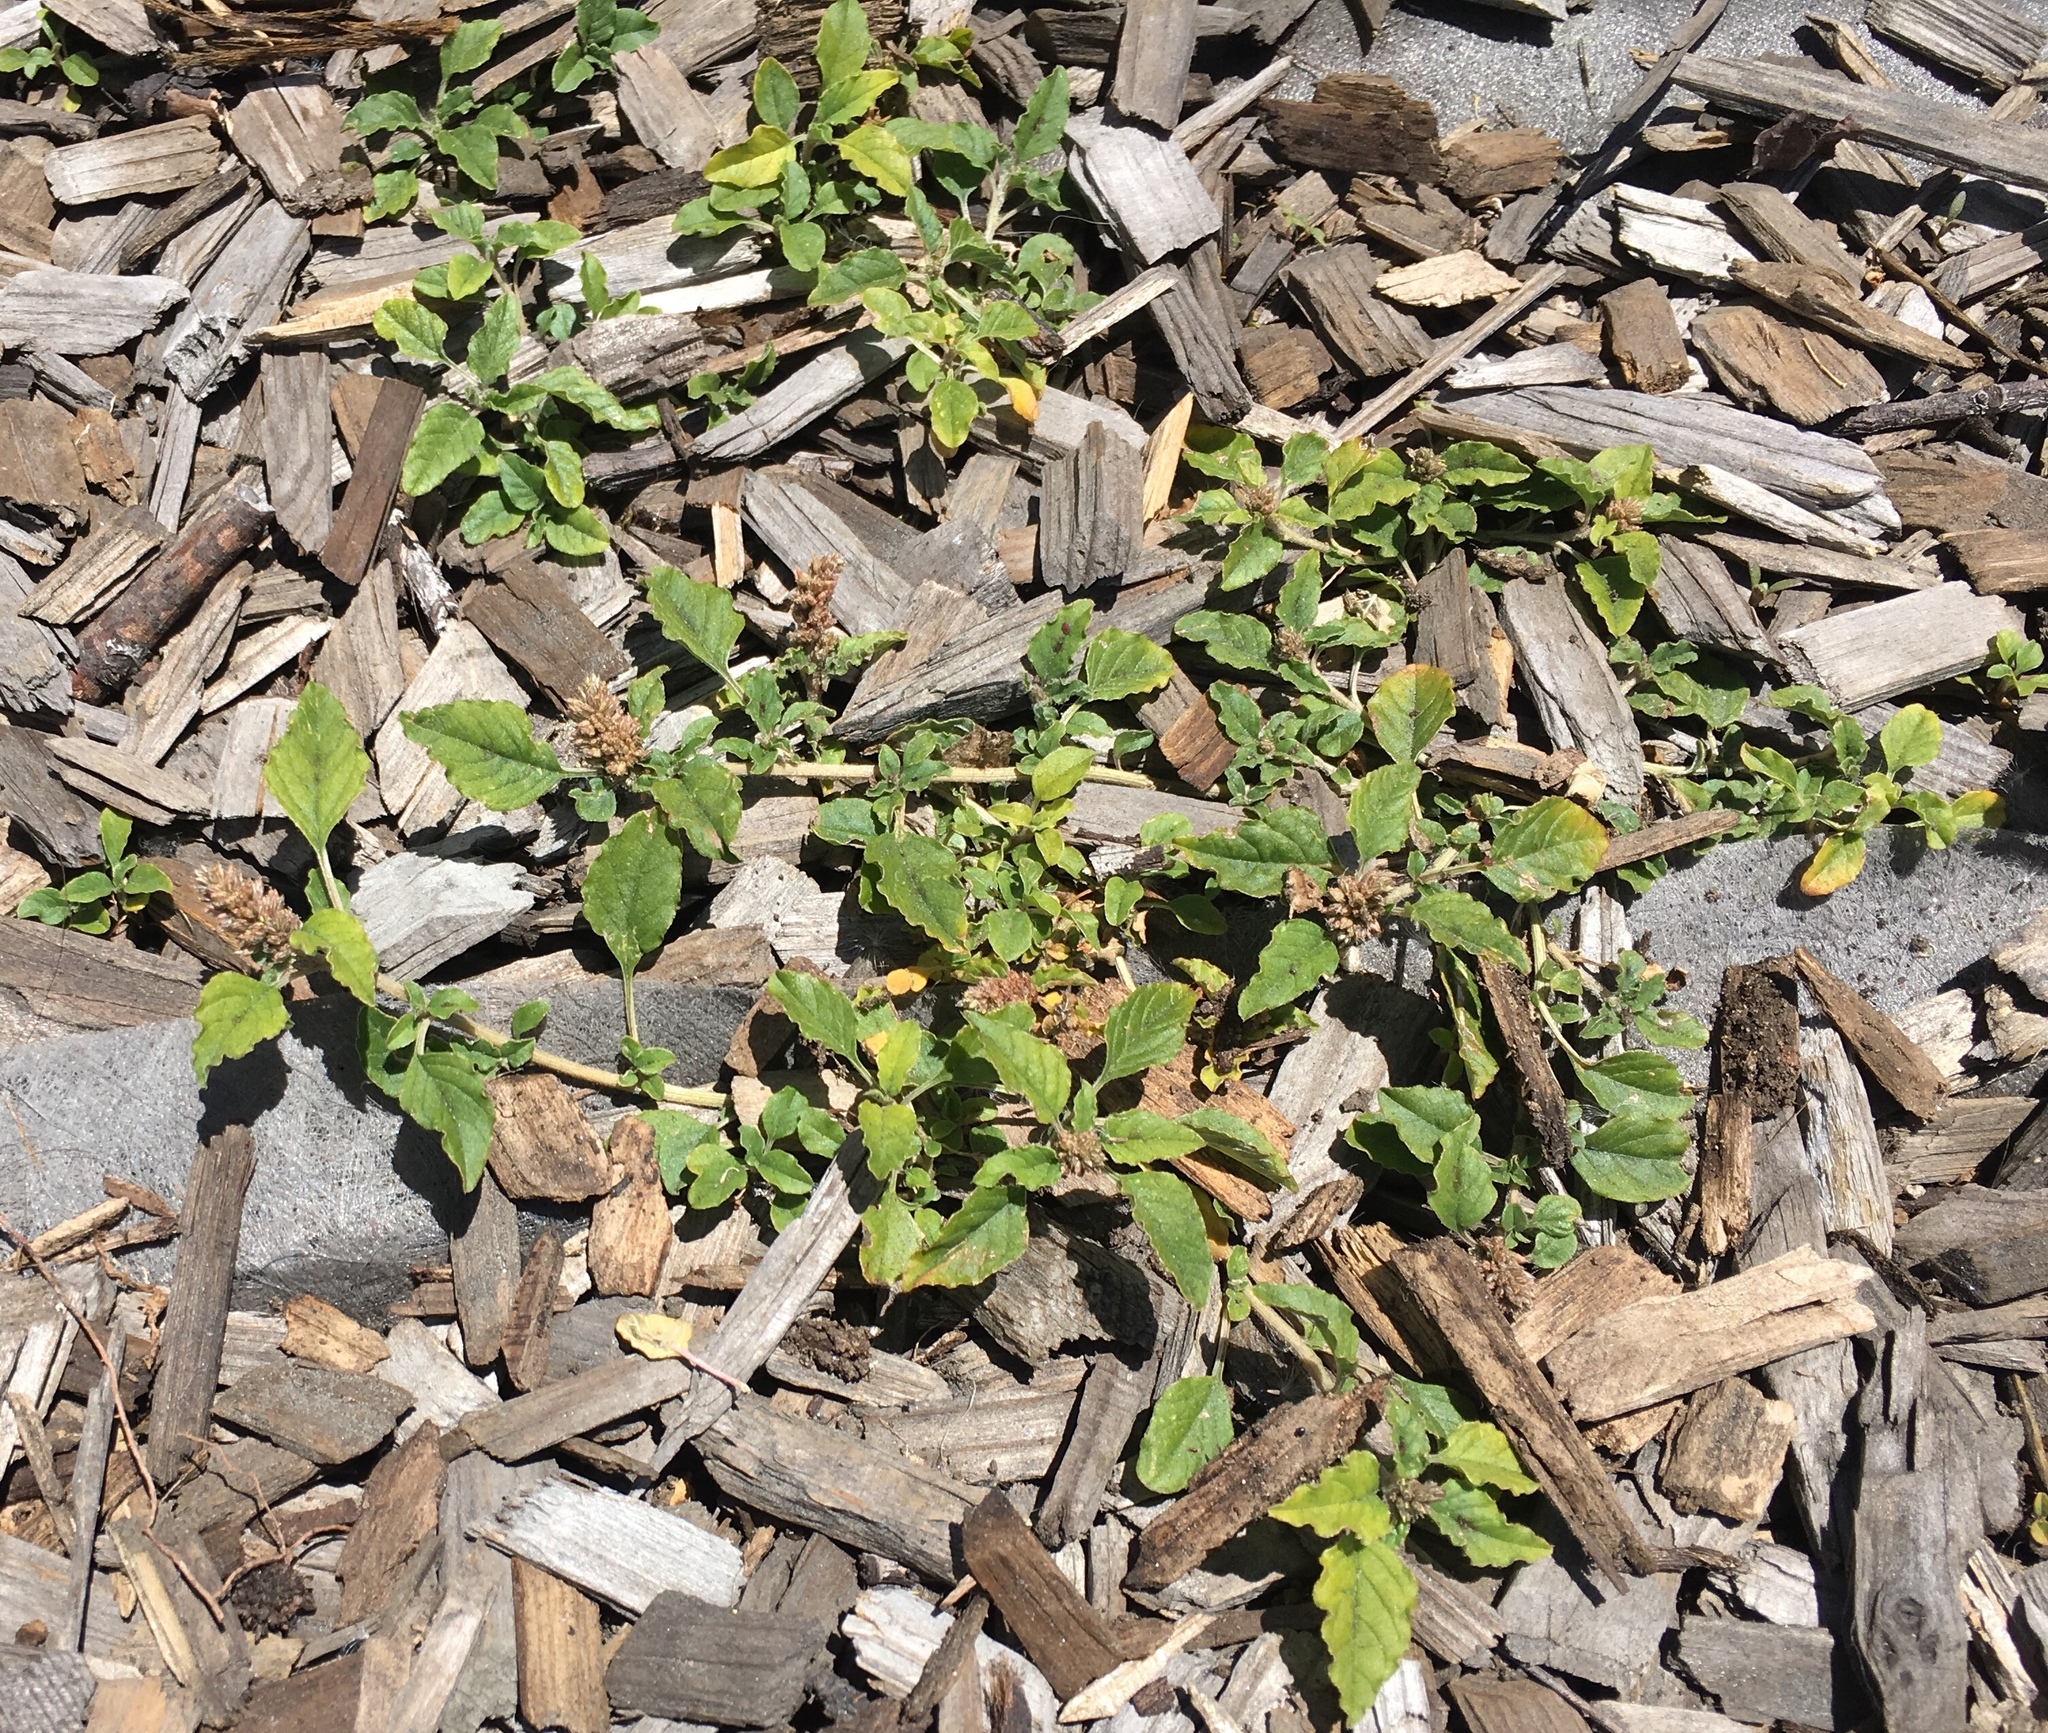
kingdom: Plantae
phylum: Tracheophyta
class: Magnoliopsida
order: Caryophyllales
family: Amaranthaceae
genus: Amaranthus
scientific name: Amaranthus deflexus
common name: Perennial pigweed
